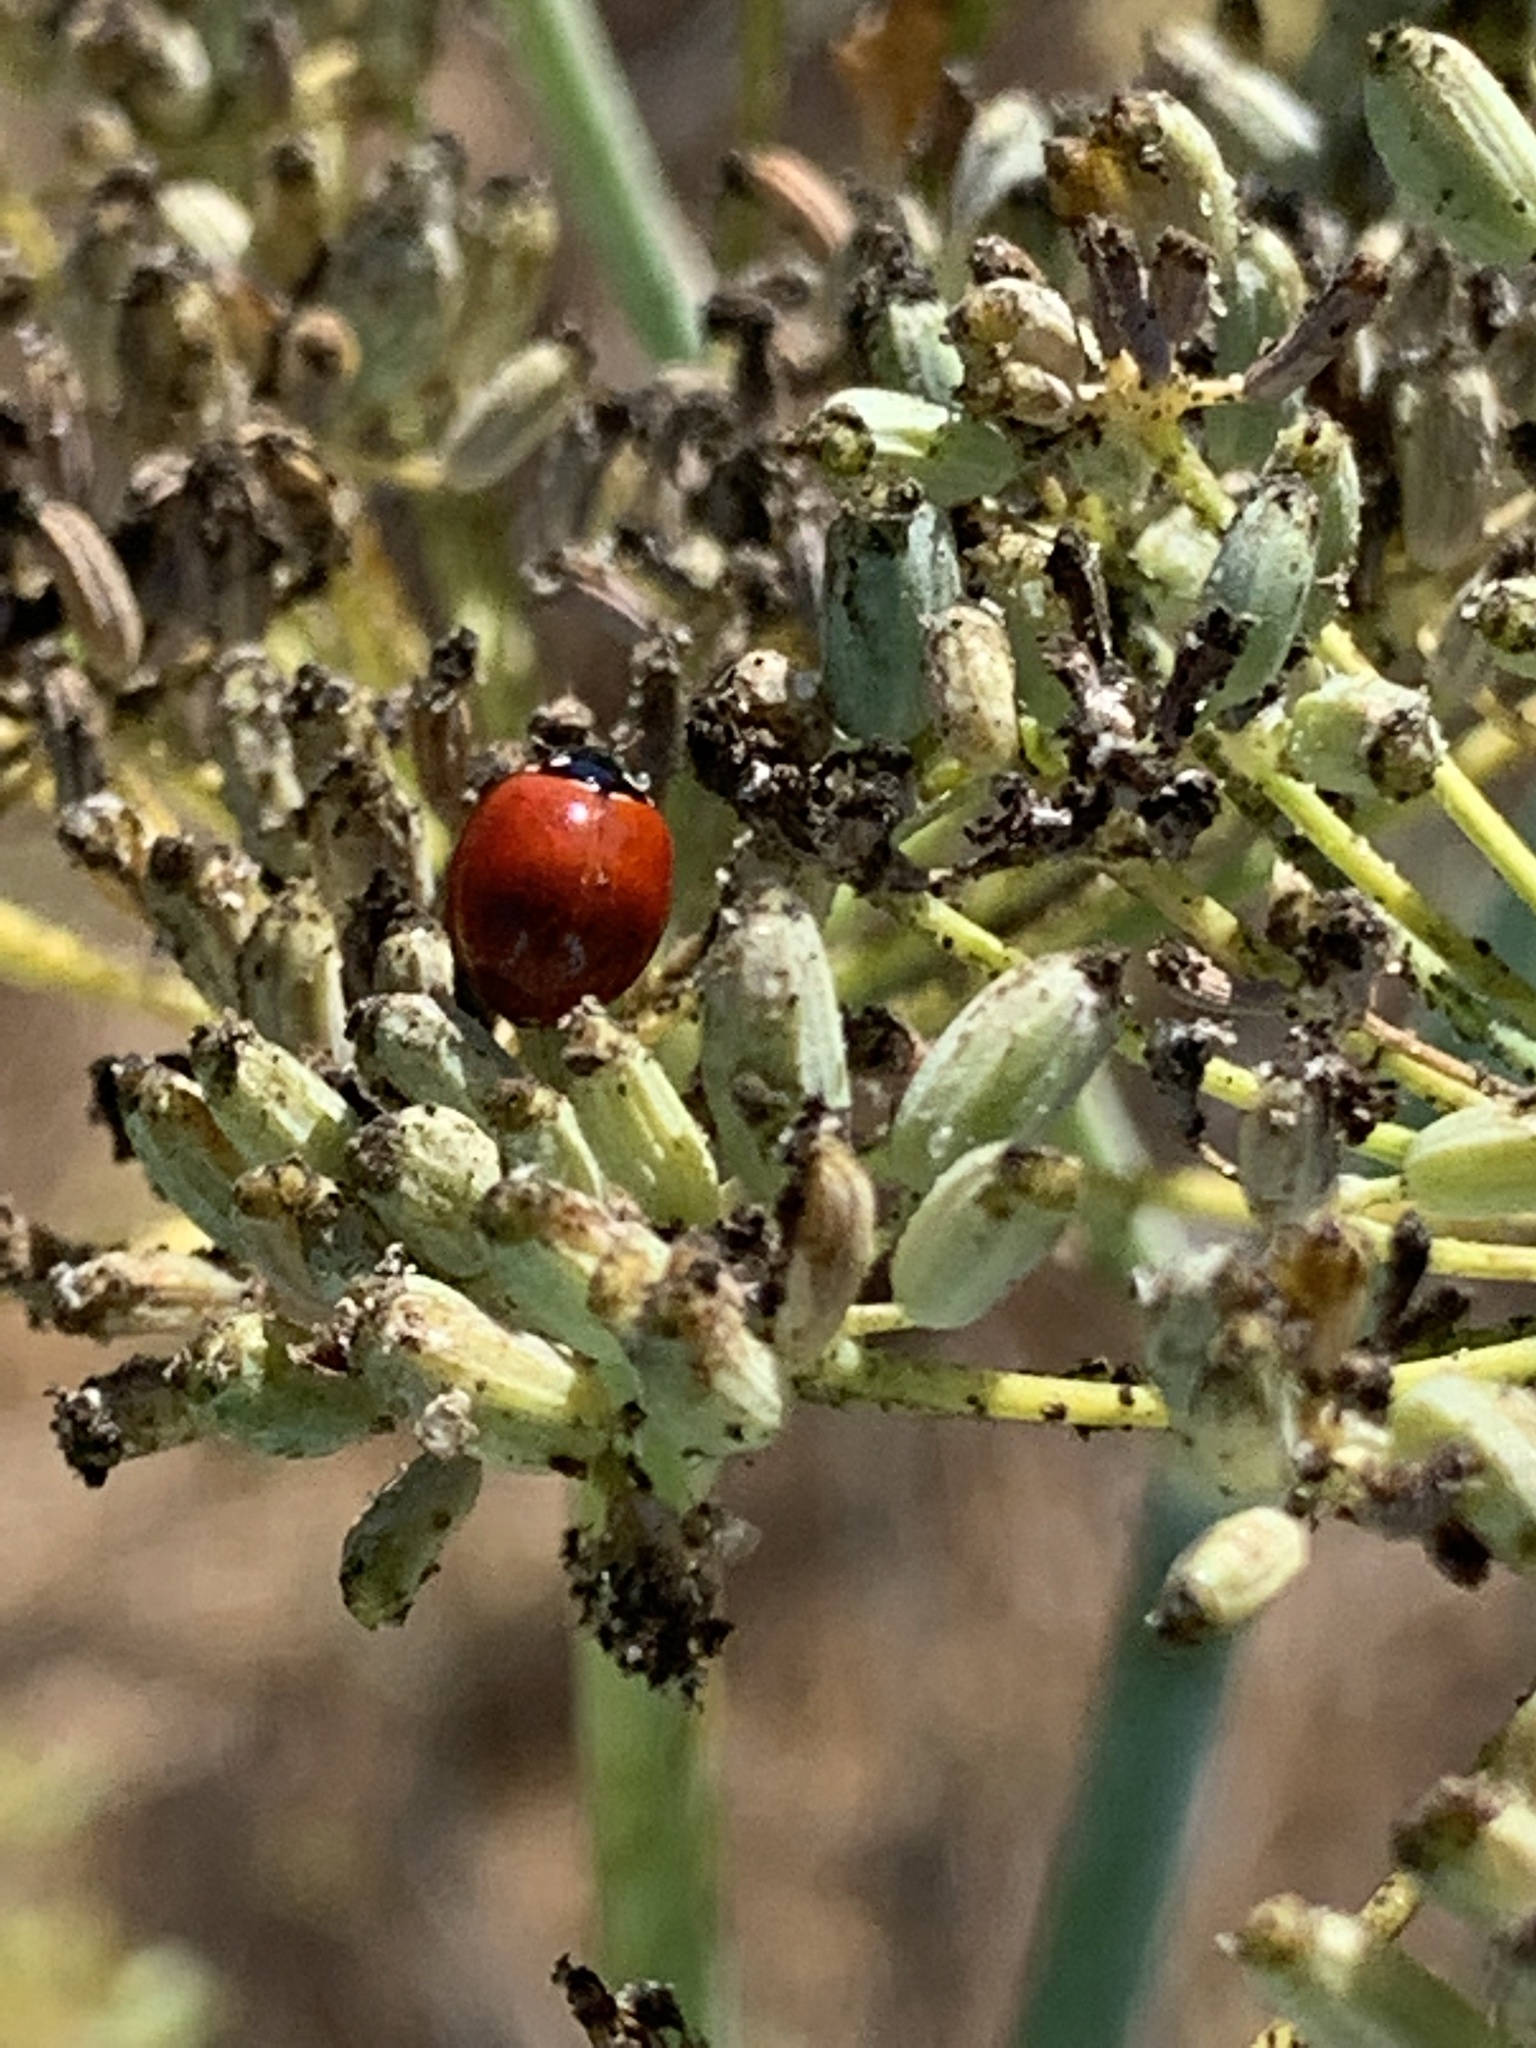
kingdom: Animalia
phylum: Arthropoda
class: Insecta
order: Coleoptera
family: Coccinellidae
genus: Cycloneda
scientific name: Cycloneda sanguinea
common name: Ladybird beetle
